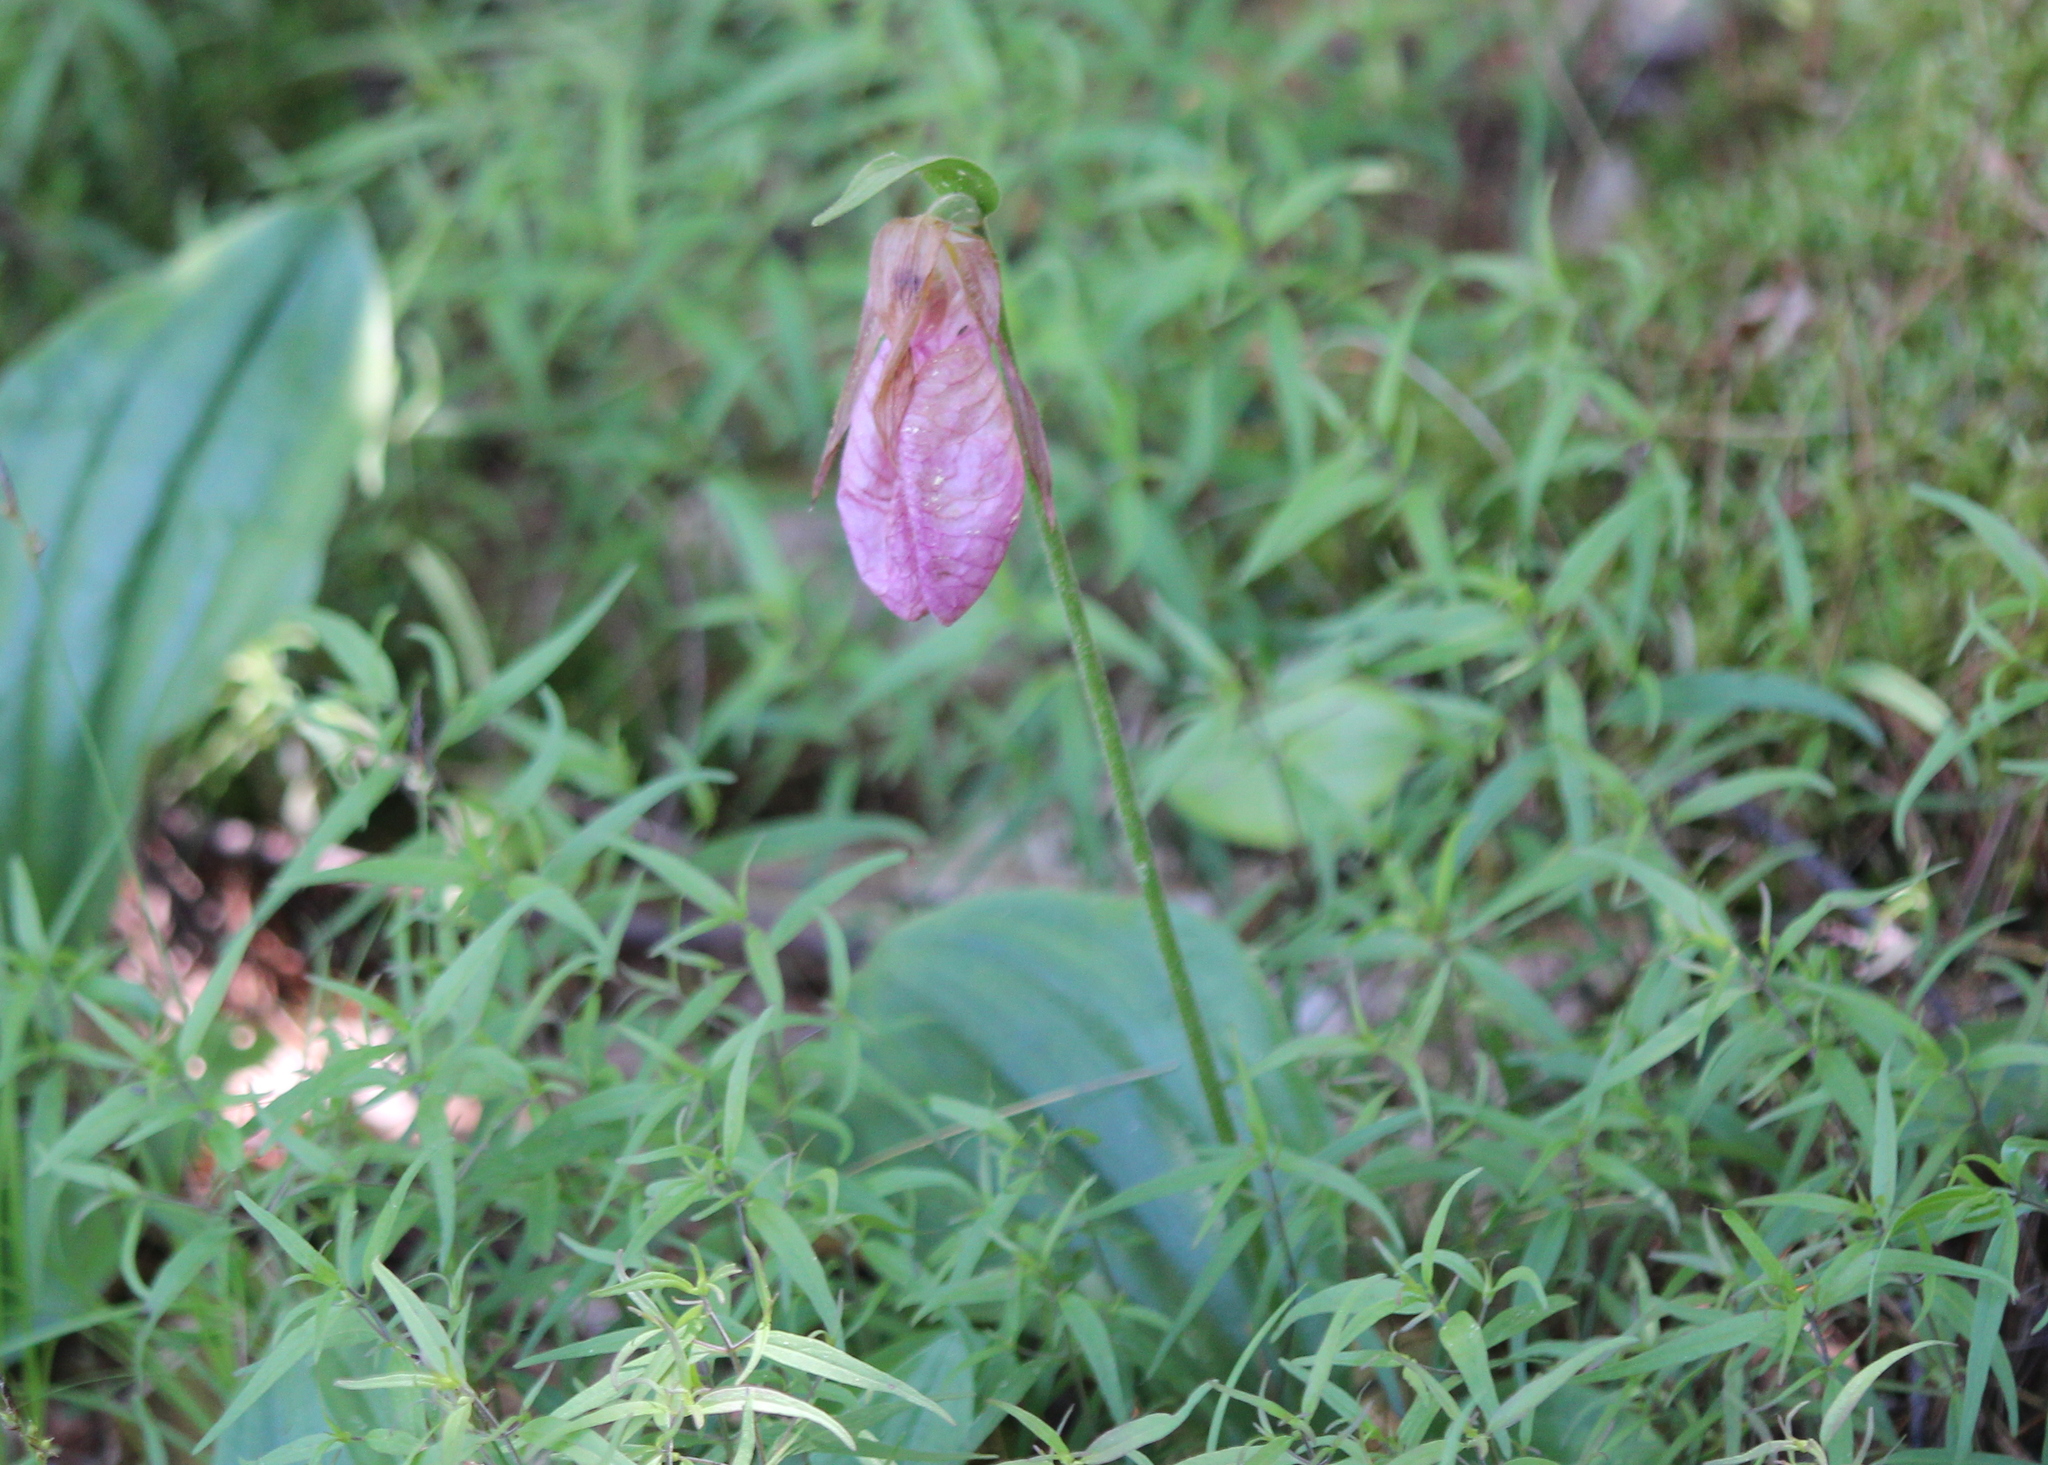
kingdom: Plantae
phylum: Tracheophyta
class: Liliopsida
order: Asparagales
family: Orchidaceae
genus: Cypripedium
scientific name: Cypripedium acaule
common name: Pink lady's-slipper
